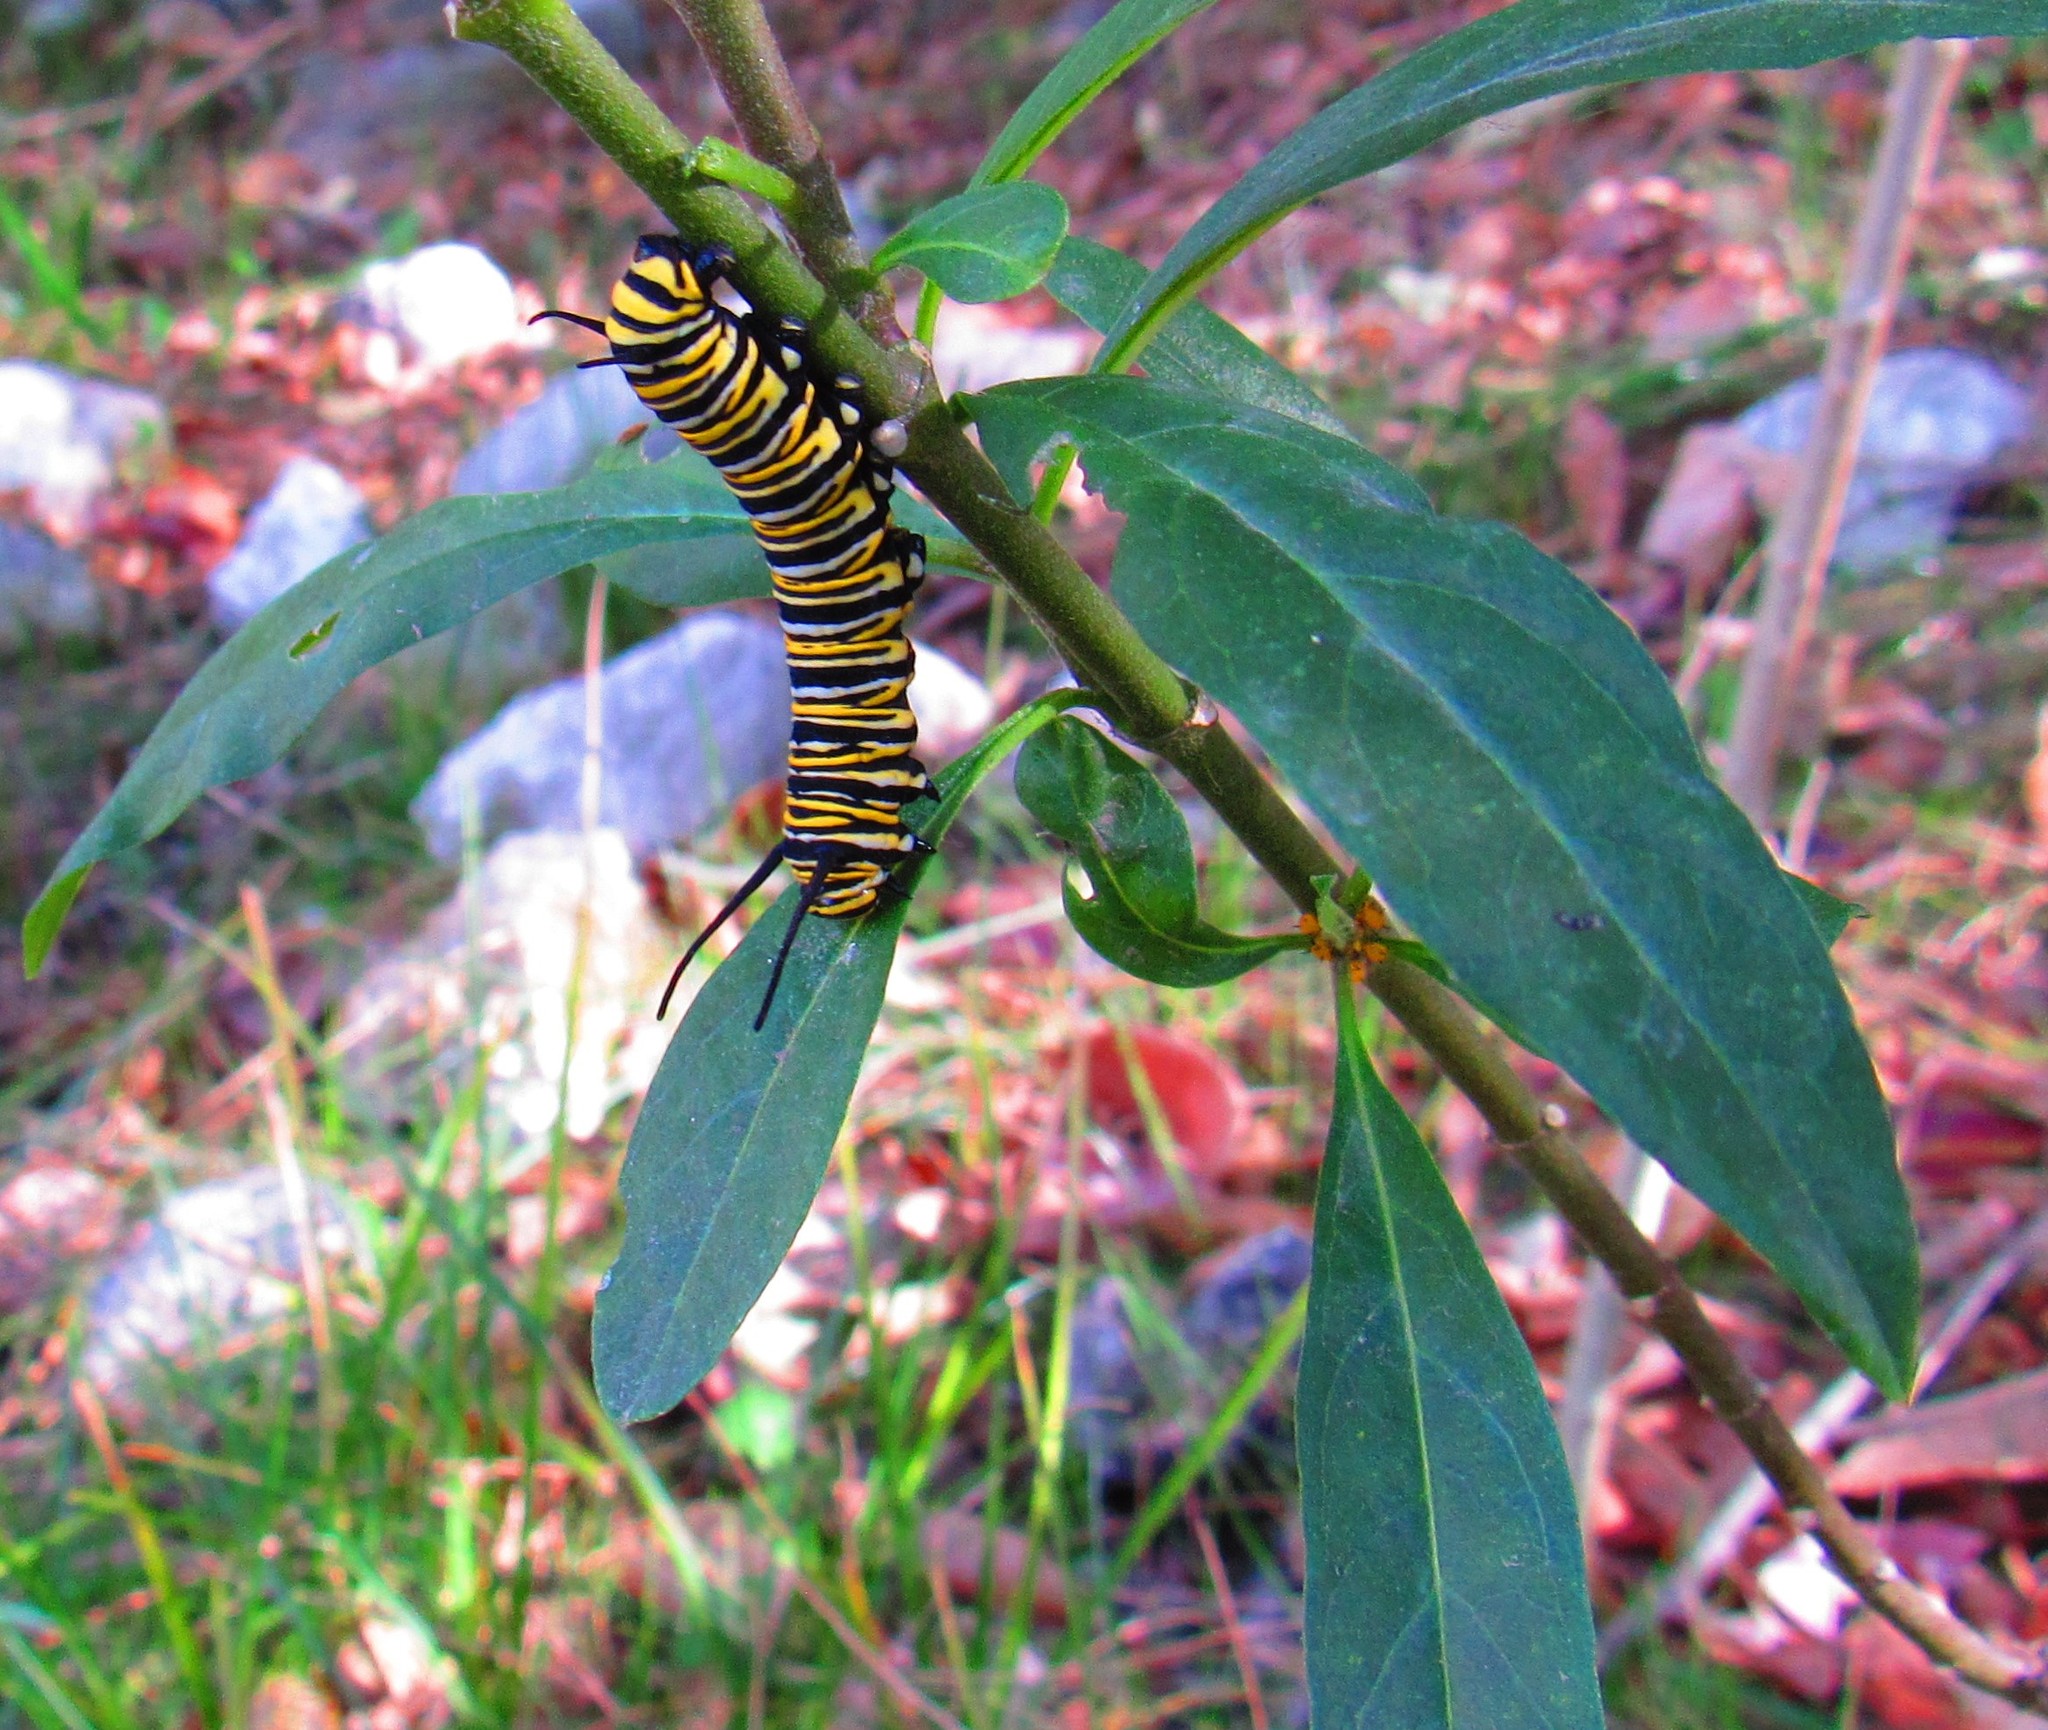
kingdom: Animalia
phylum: Arthropoda
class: Insecta
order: Lepidoptera
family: Nymphalidae
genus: Danaus
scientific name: Danaus plexippus
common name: Monarch
